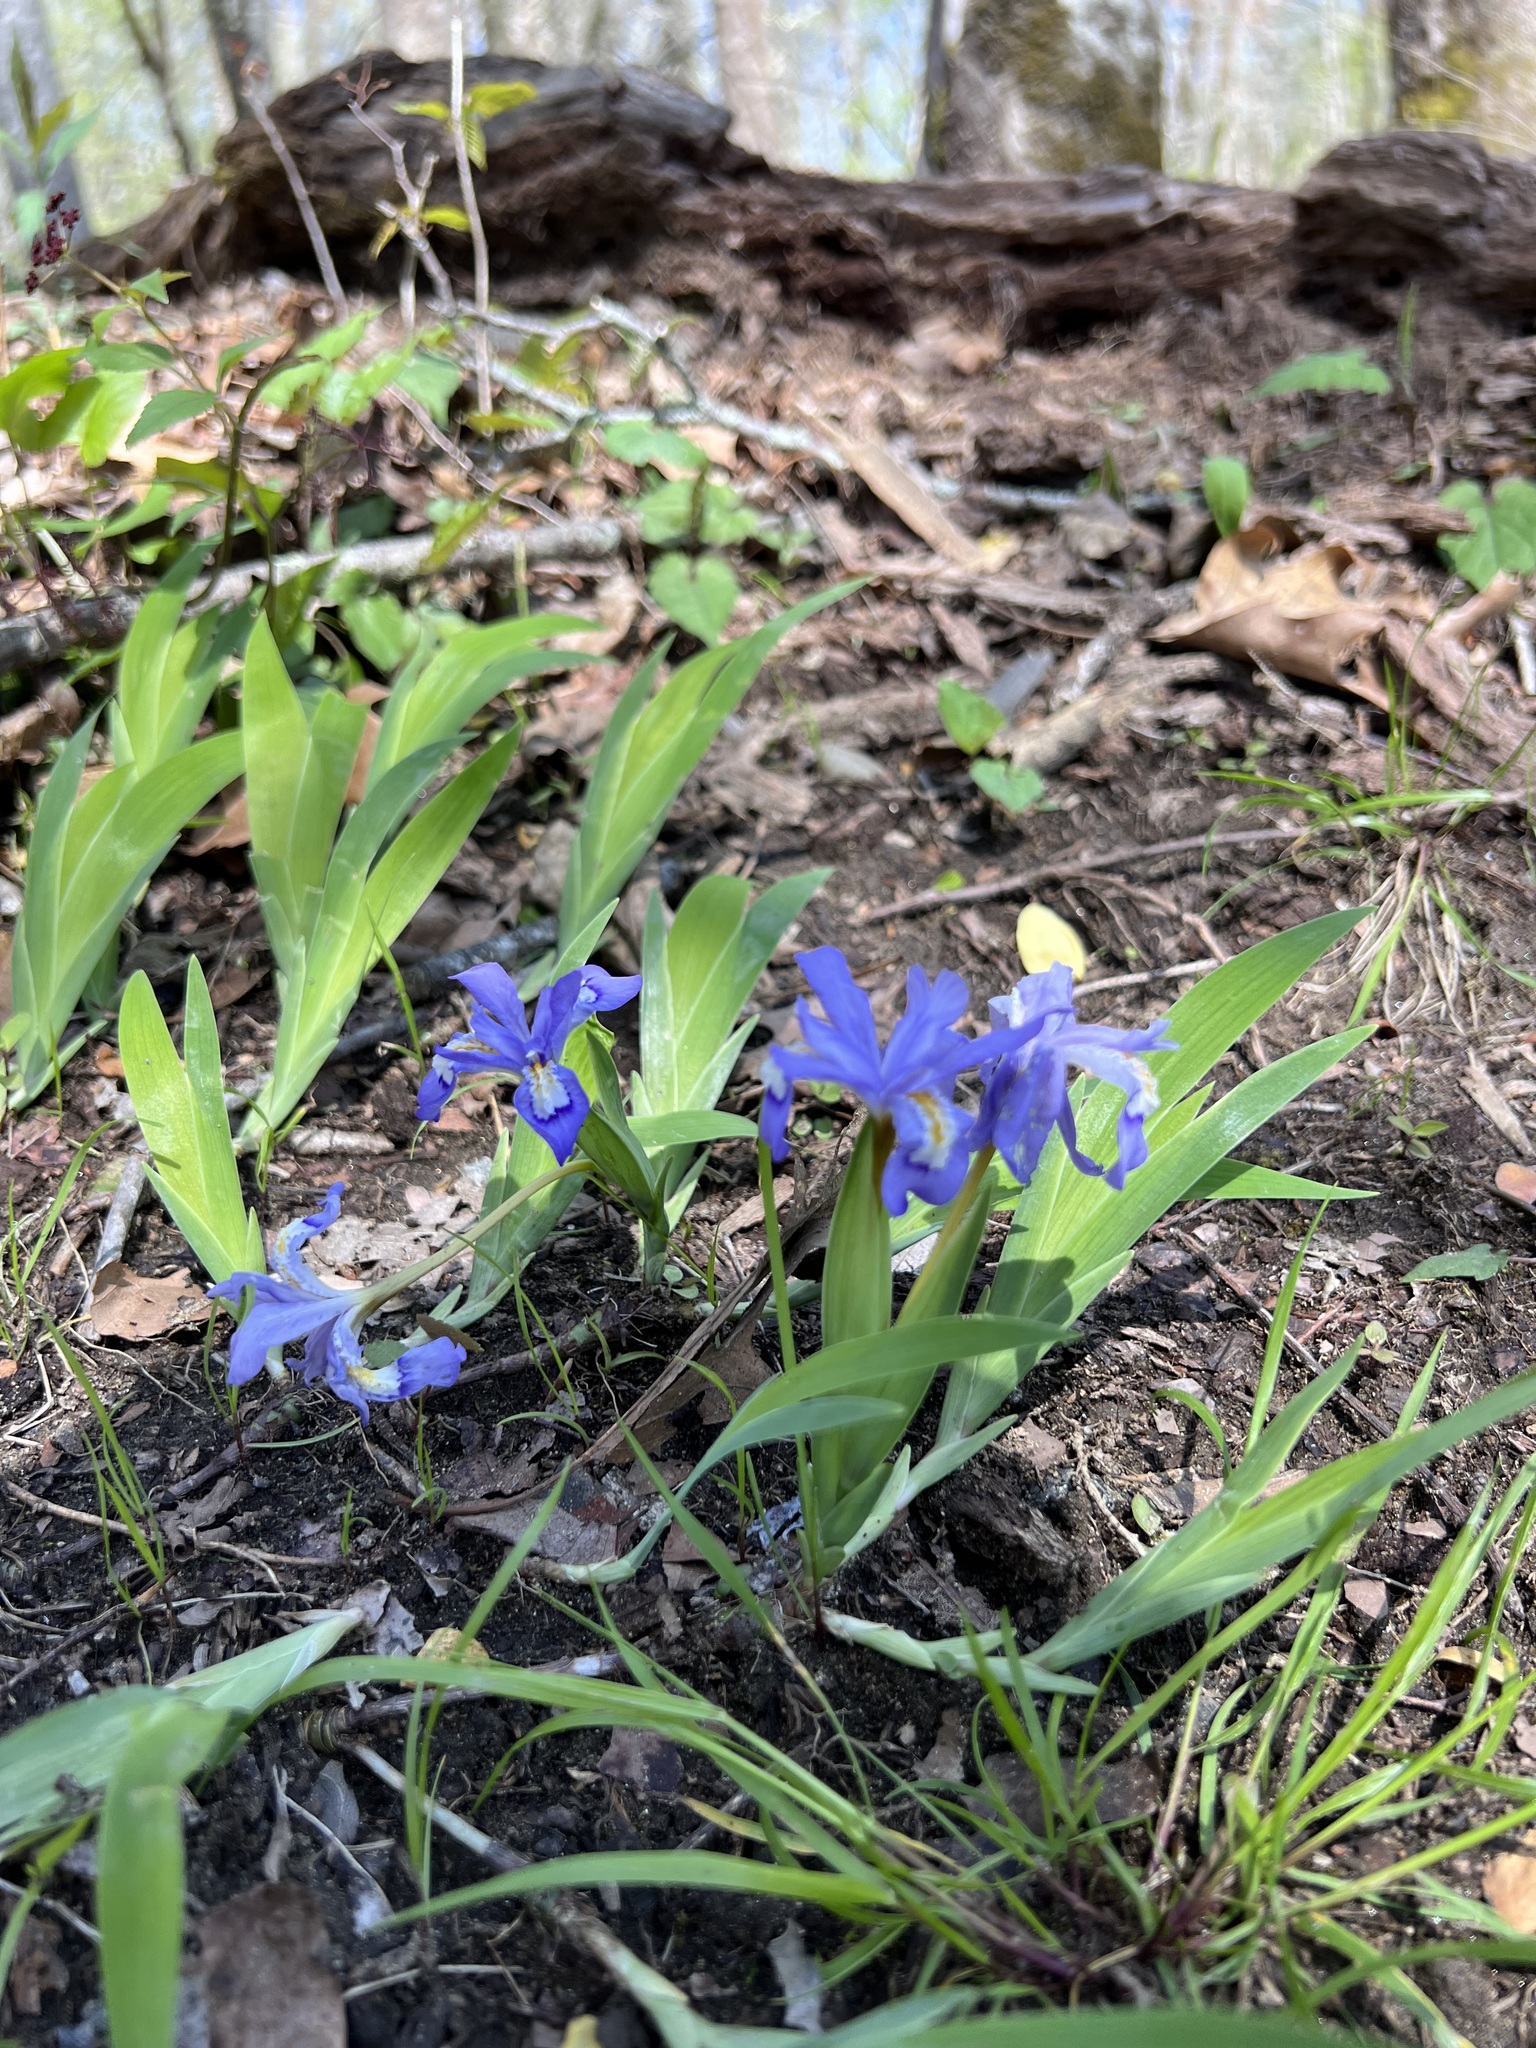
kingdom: Plantae
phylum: Tracheophyta
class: Liliopsida
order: Asparagales
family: Iridaceae
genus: Iris
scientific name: Iris cristata
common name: Crested iris
